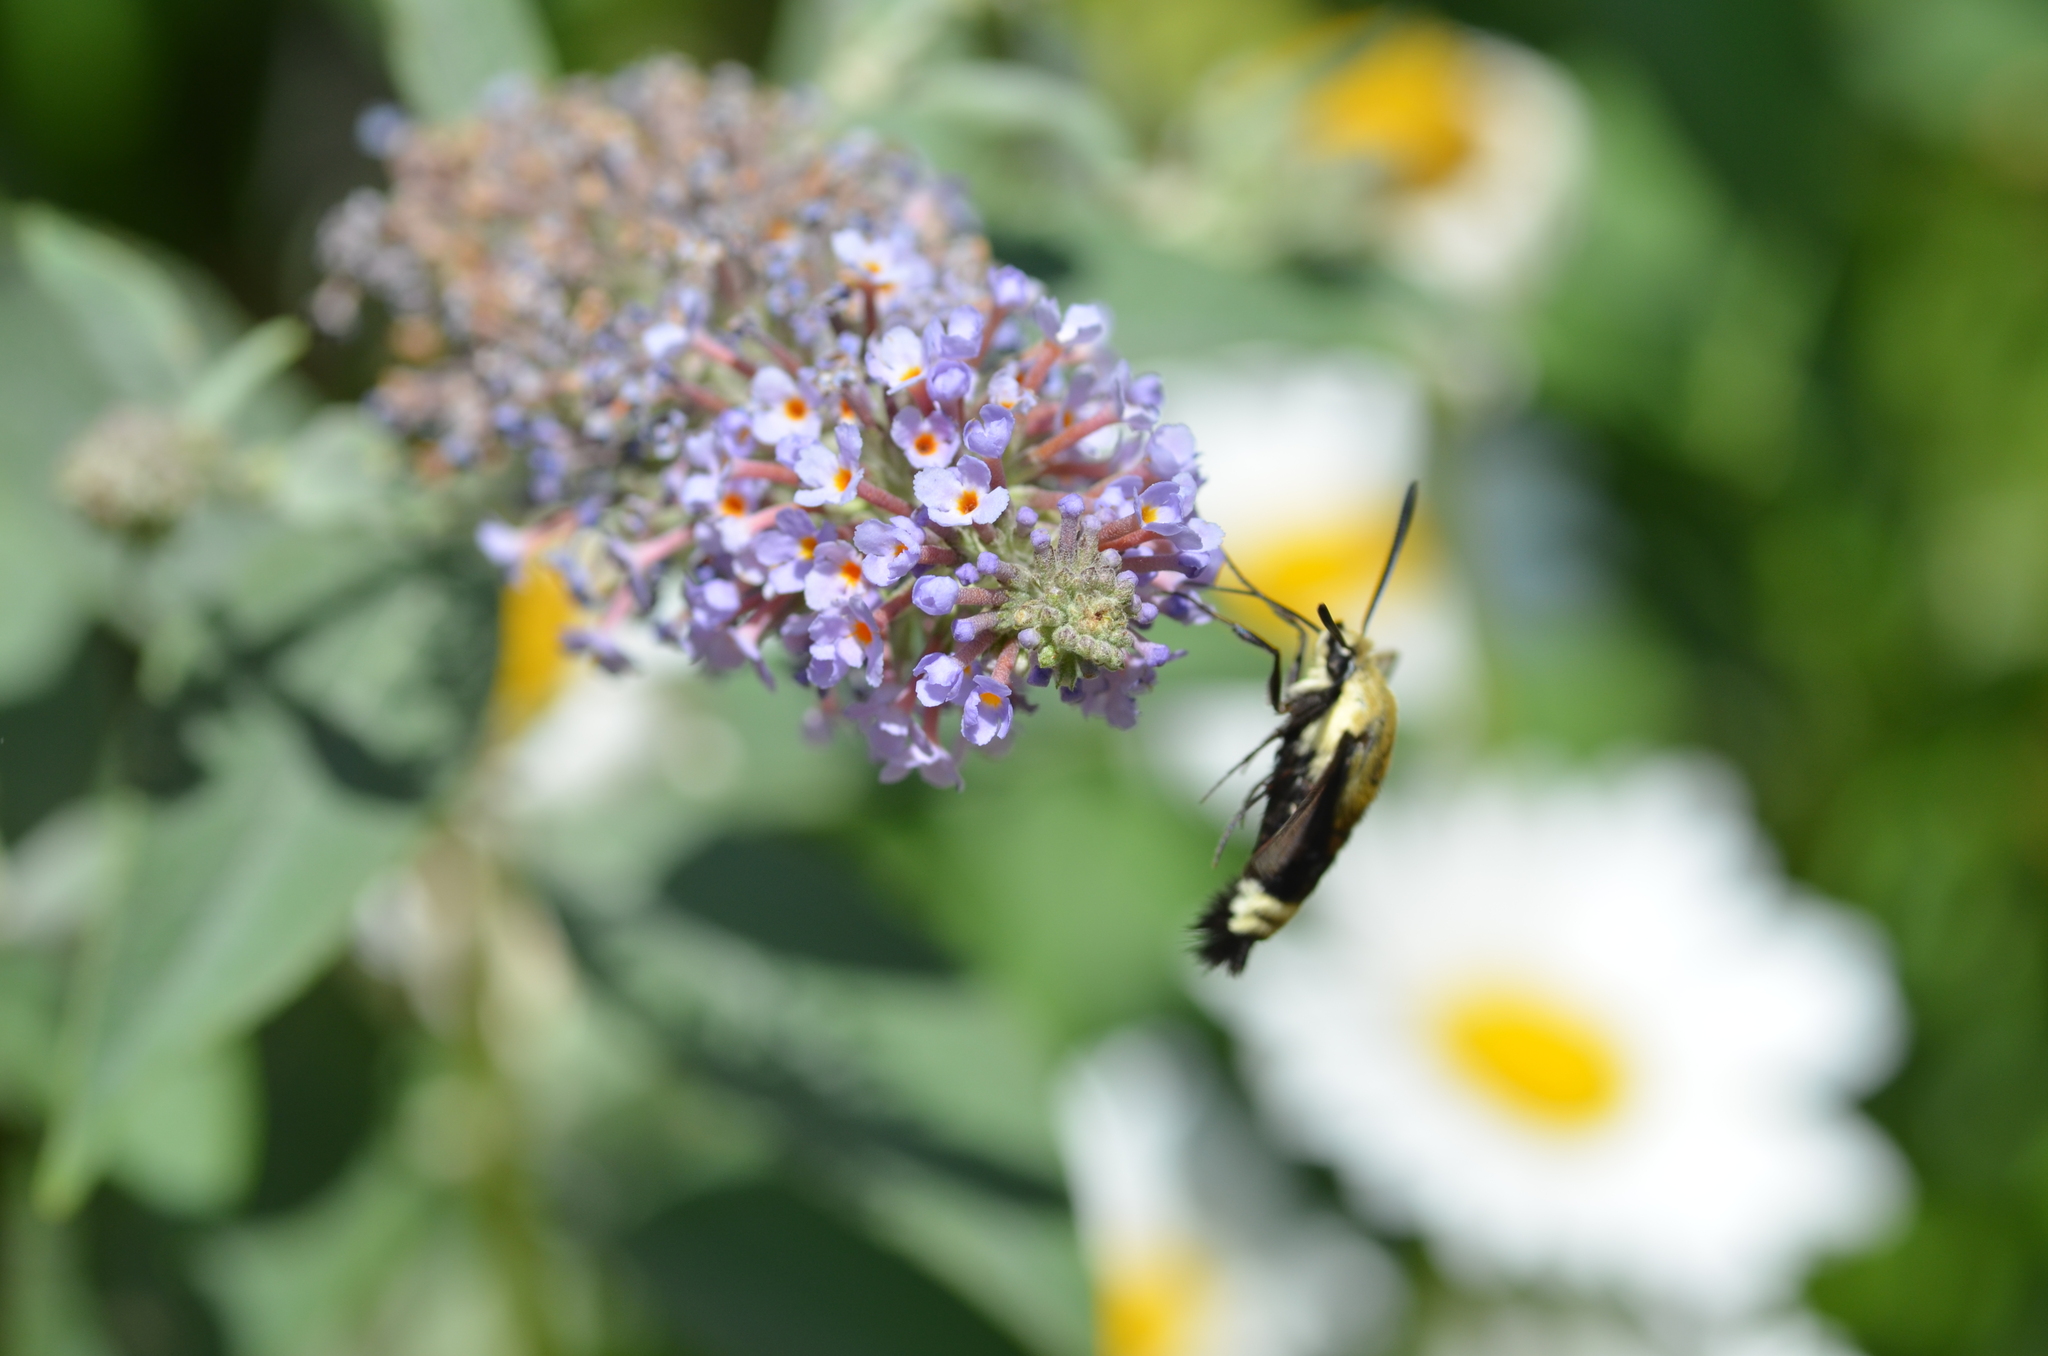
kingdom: Animalia
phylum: Arthropoda
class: Insecta
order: Lepidoptera
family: Sphingidae
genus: Hemaris
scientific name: Hemaris thetis
